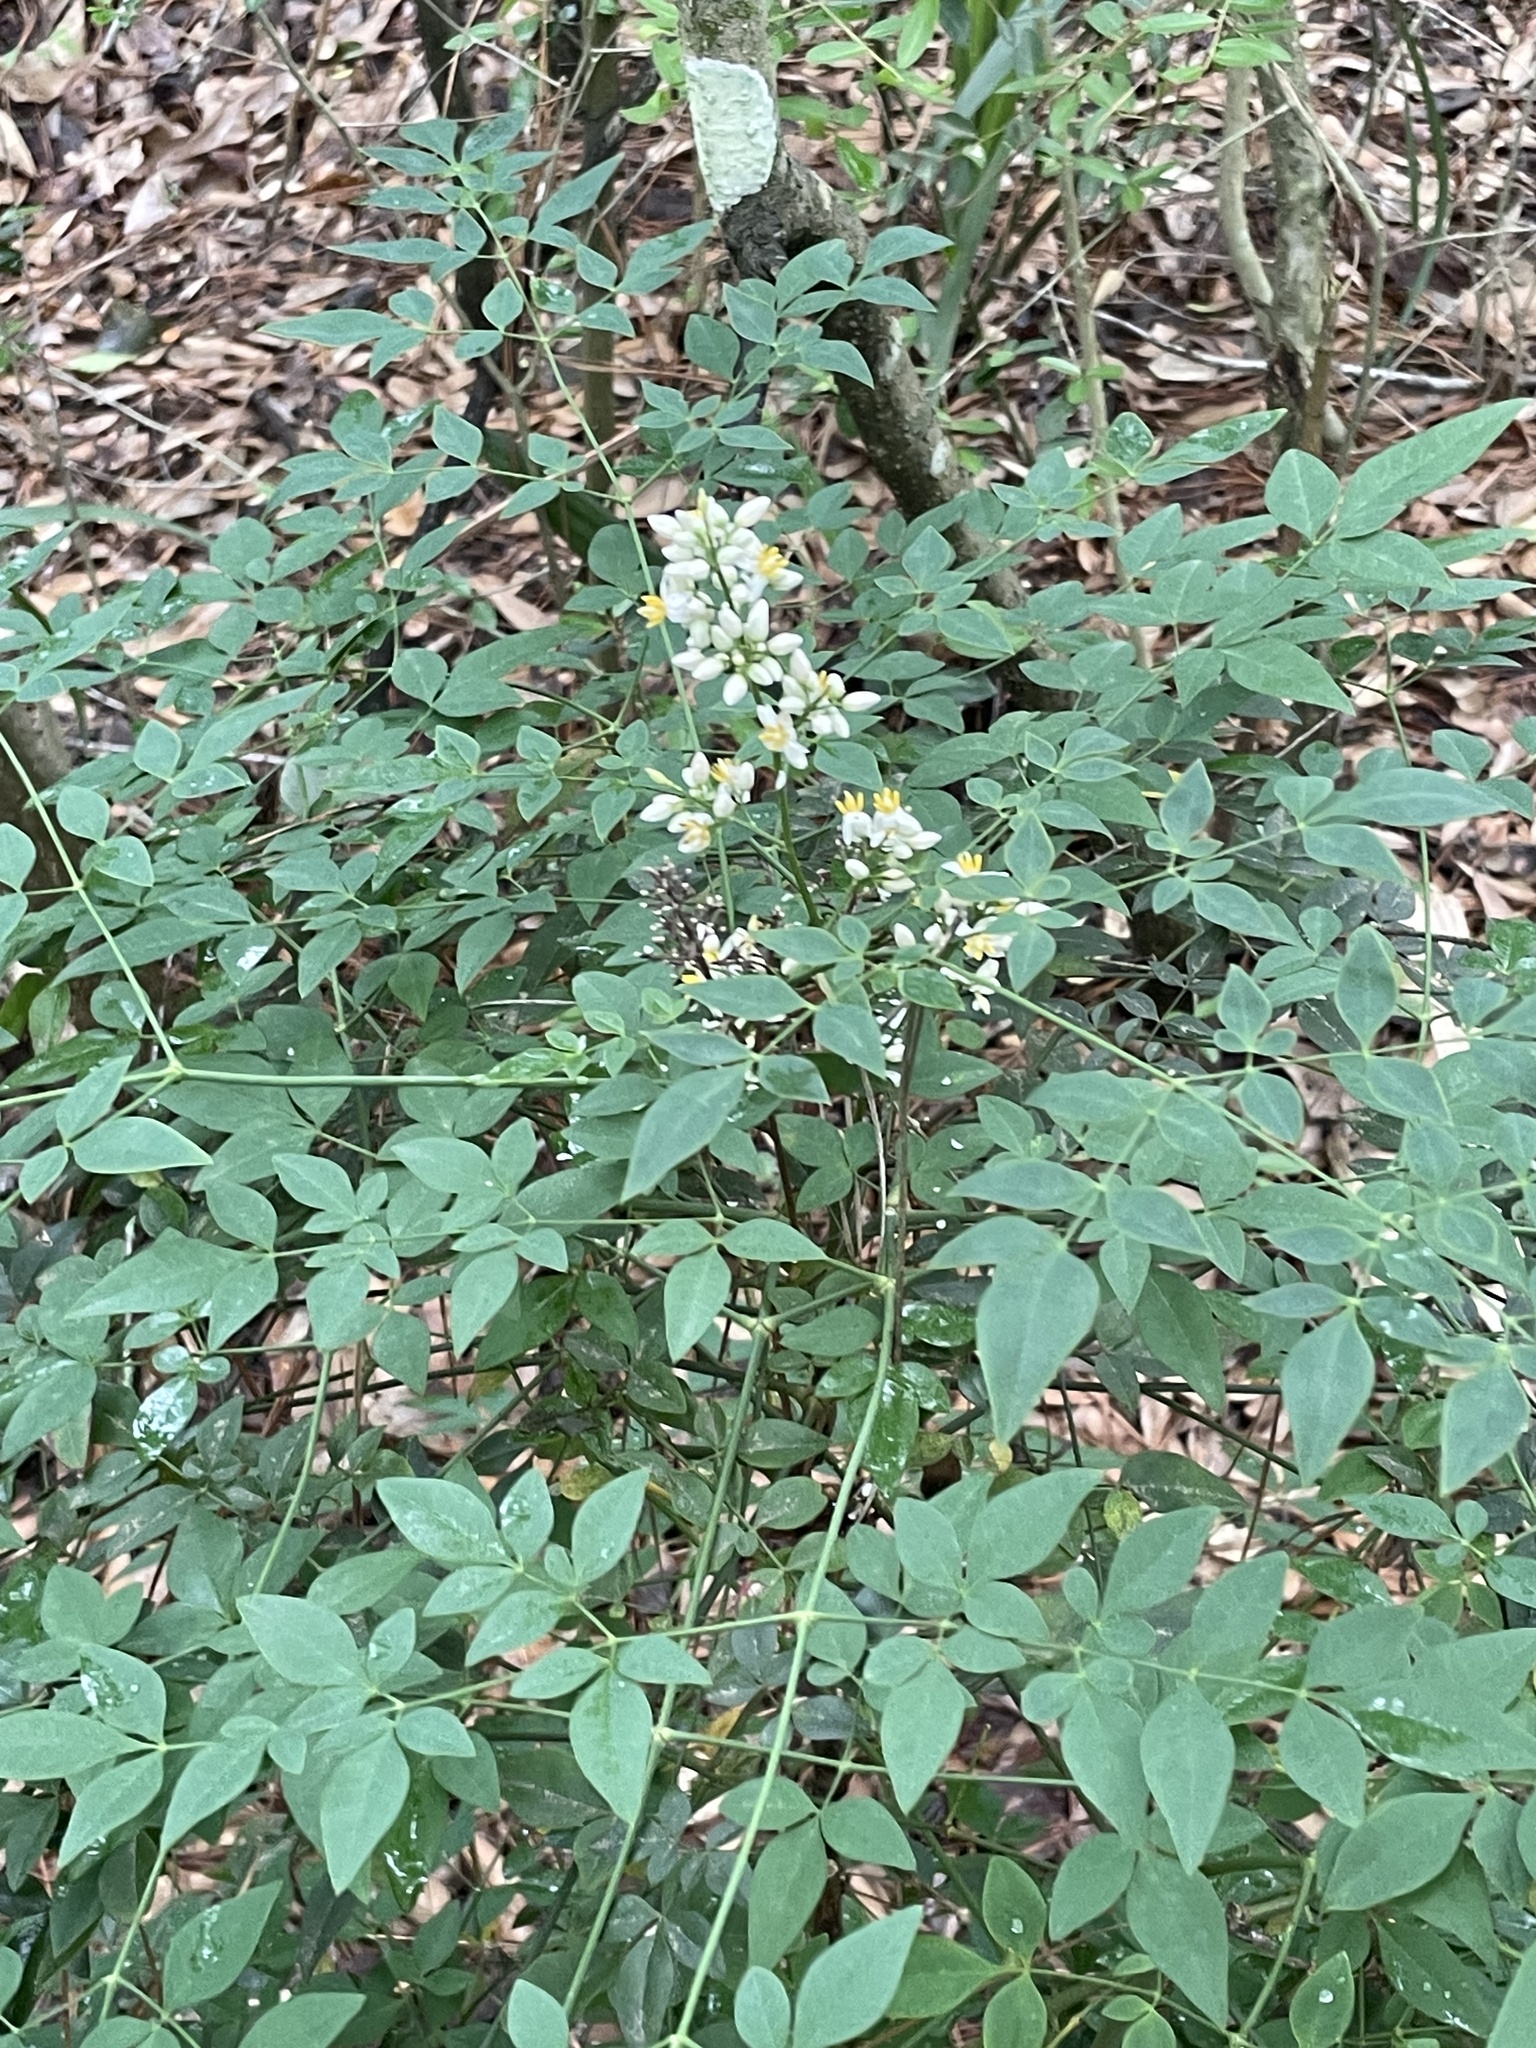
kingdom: Plantae
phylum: Tracheophyta
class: Magnoliopsida
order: Ranunculales
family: Berberidaceae
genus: Nandina
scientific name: Nandina domestica
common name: Sacred bamboo
